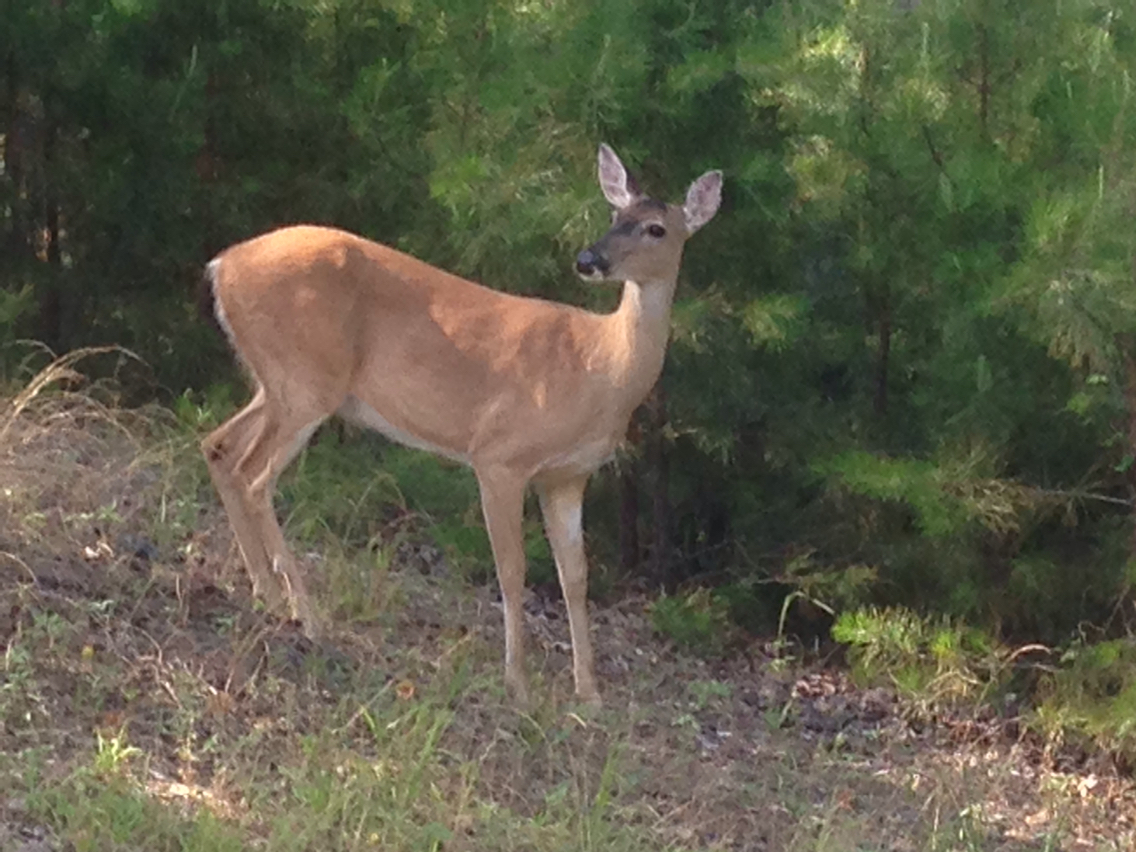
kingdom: Animalia
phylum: Chordata
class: Mammalia
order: Artiodactyla
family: Cervidae
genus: Odocoileus
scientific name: Odocoileus virginianus
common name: White-tailed deer
